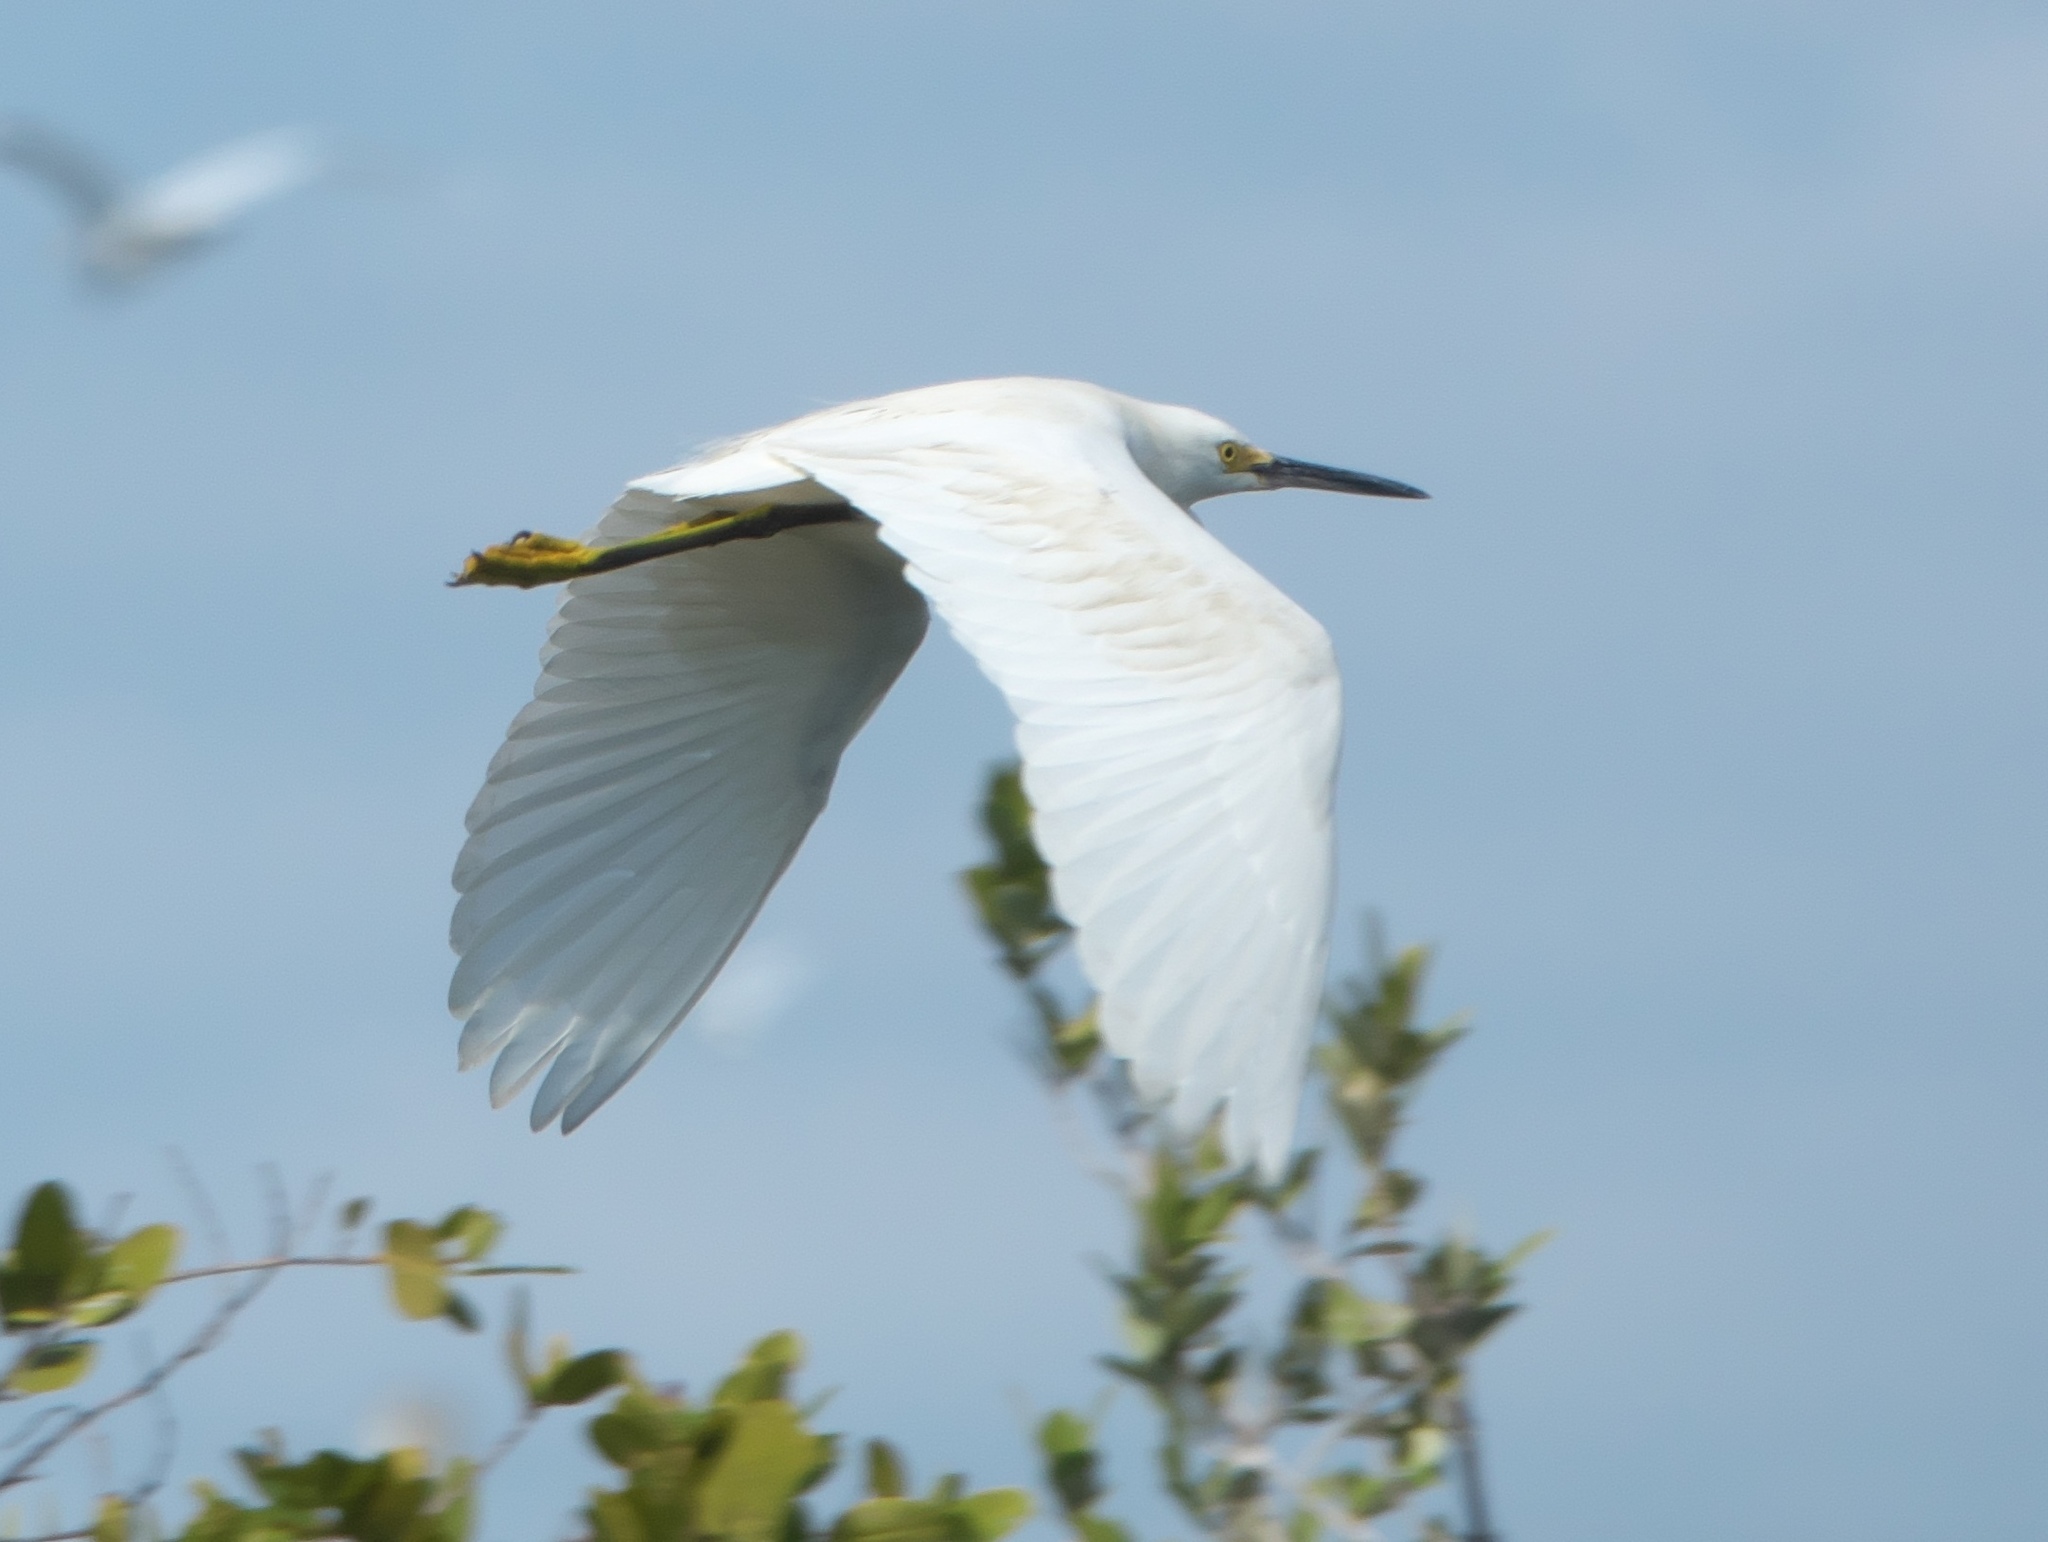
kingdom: Animalia
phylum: Chordata
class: Aves
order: Pelecaniformes
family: Ardeidae
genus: Egretta
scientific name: Egretta thula
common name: Snowy egret
